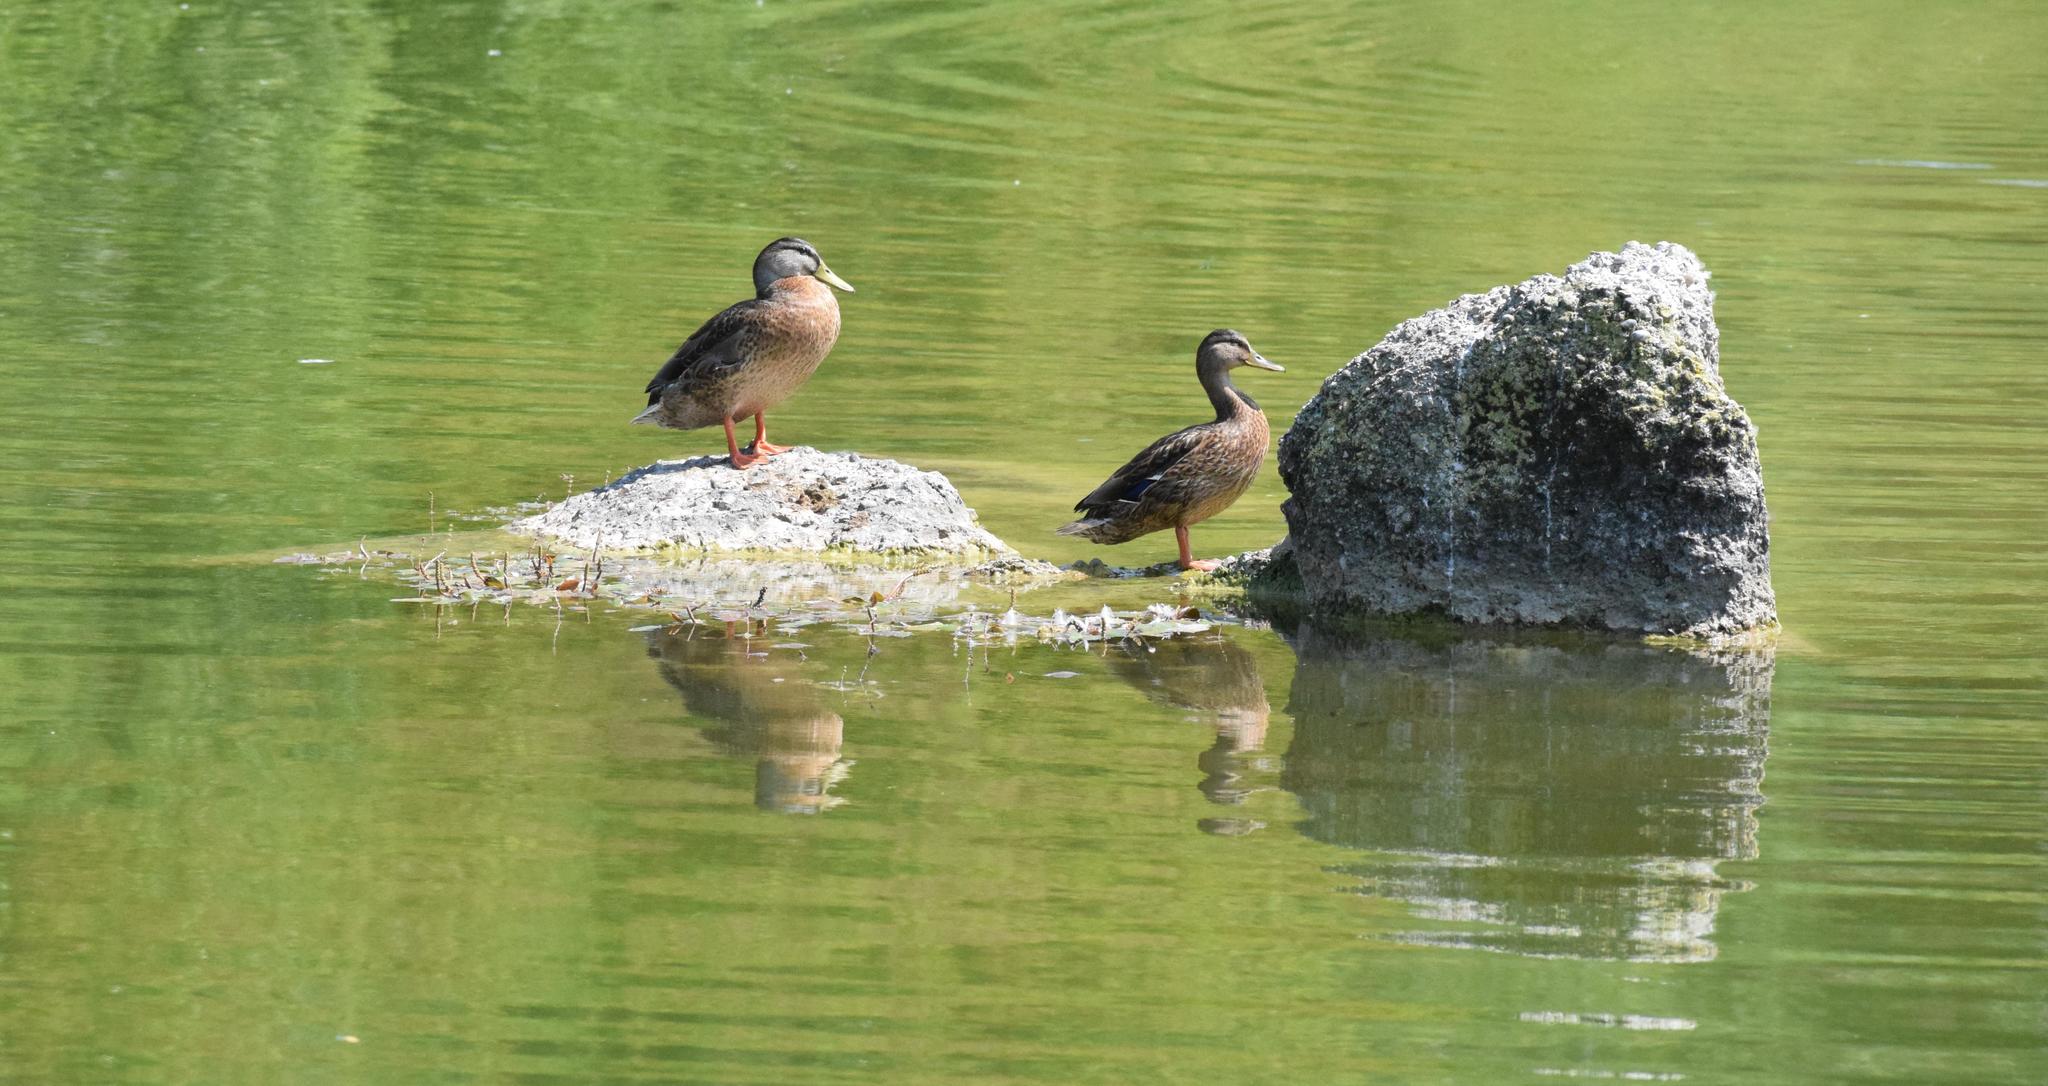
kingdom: Animalia
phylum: Chordata
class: Aves
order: Anseriformes
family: Anatidae
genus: Anas
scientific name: Anas platyrhynchos
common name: Mallard
